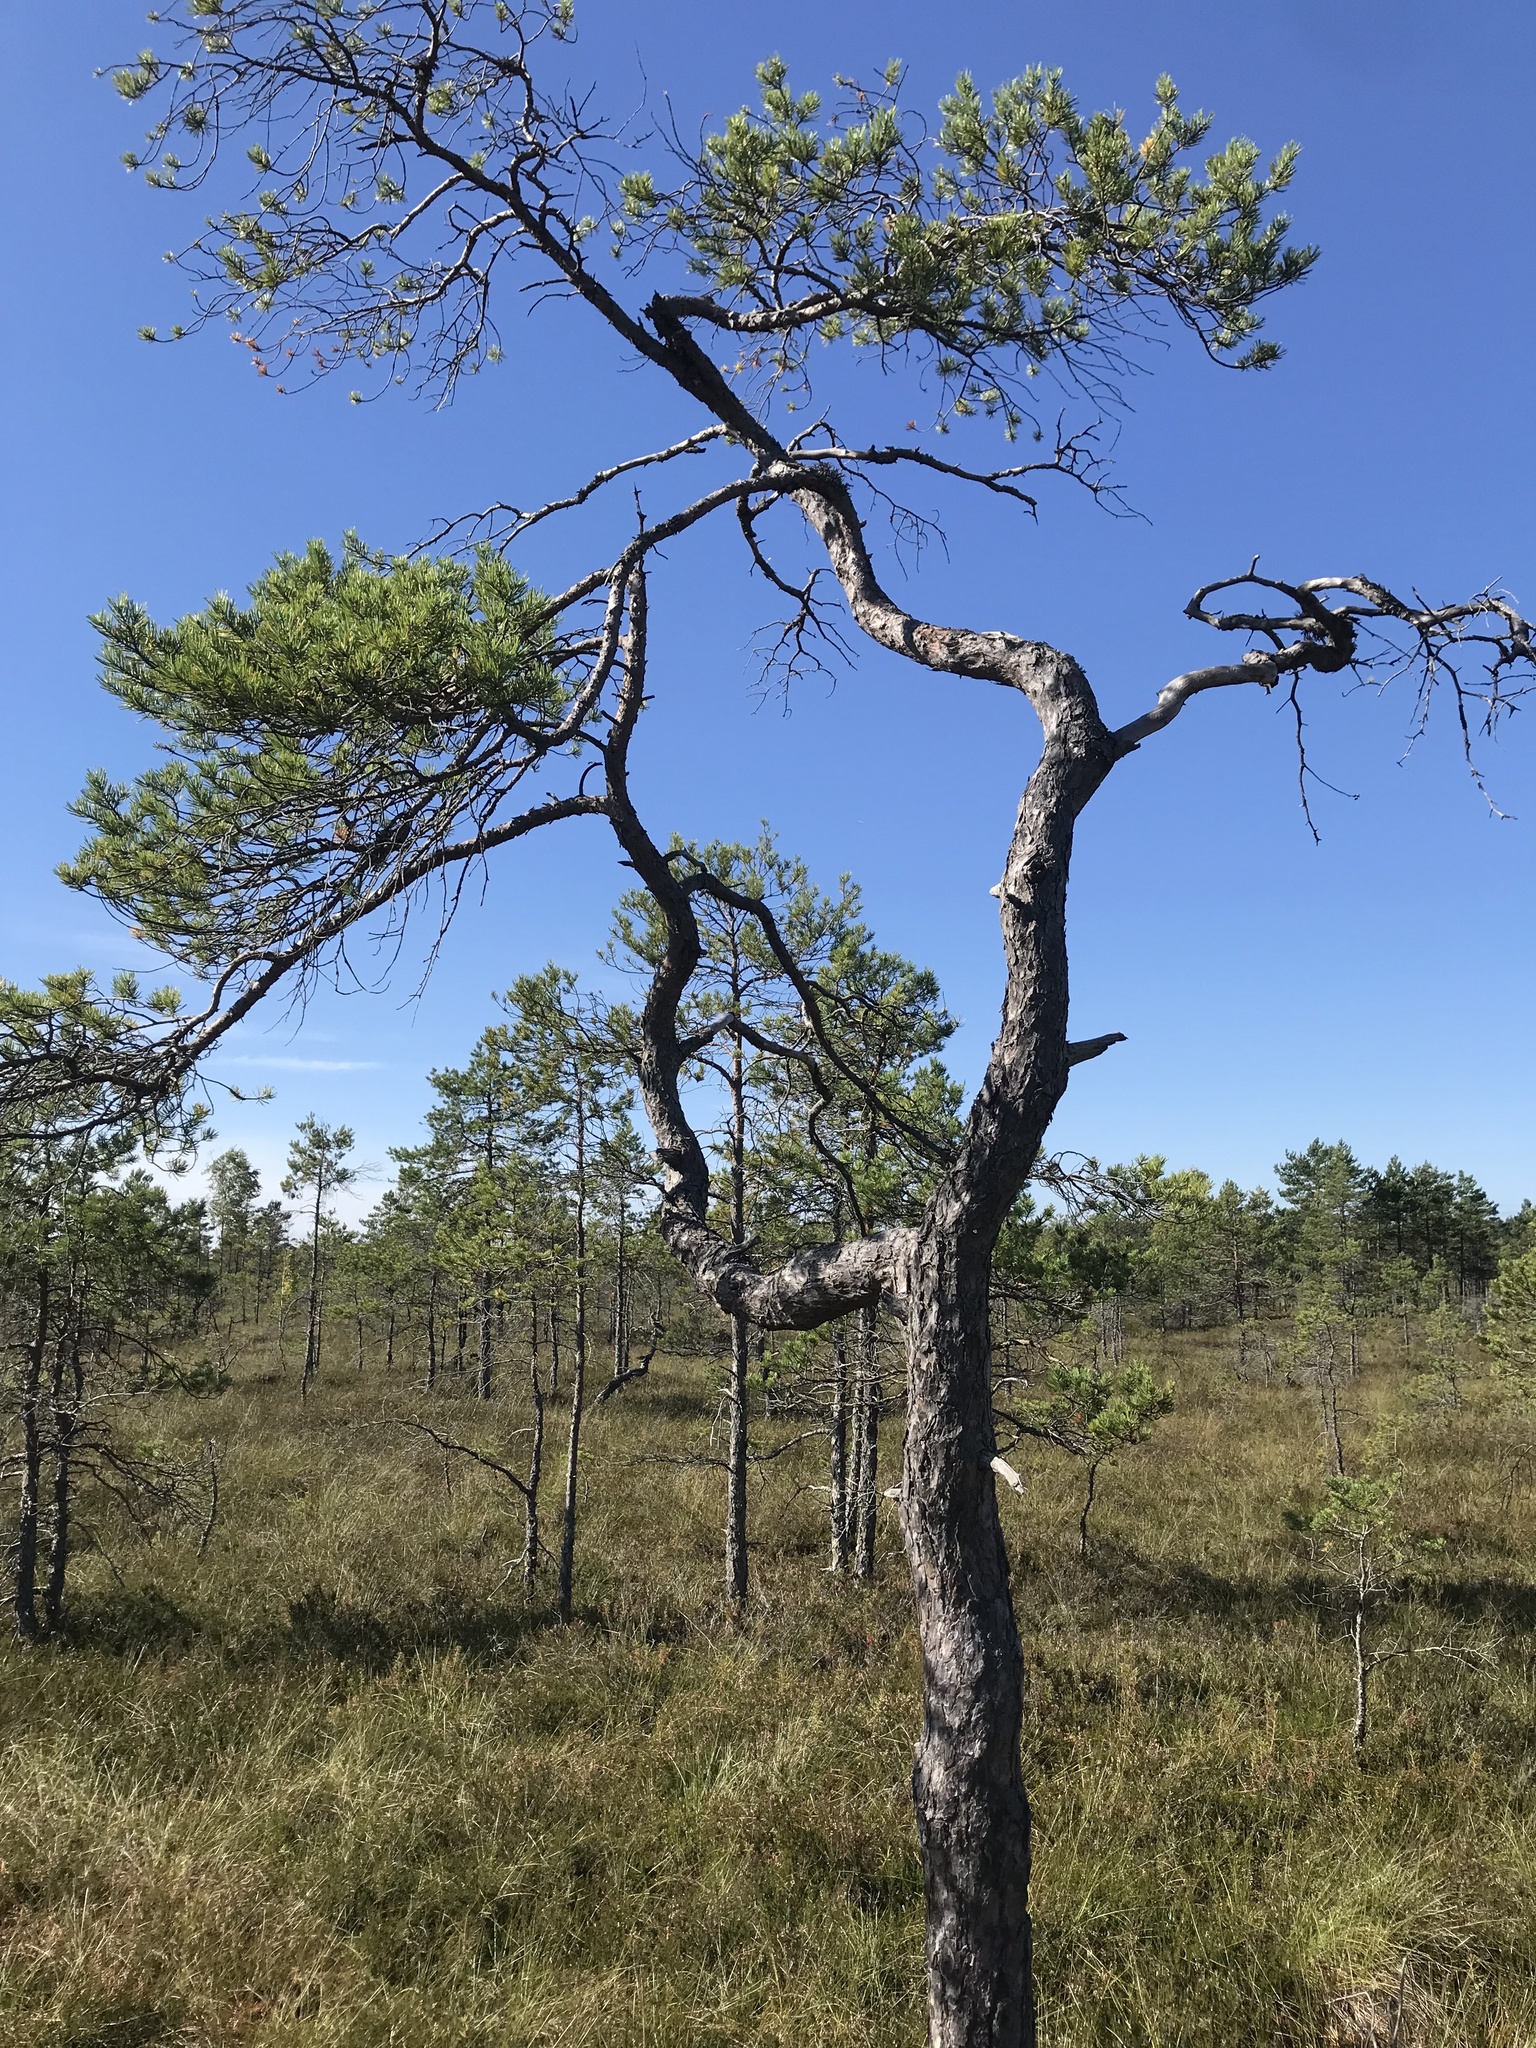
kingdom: Plantae
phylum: Tracheophyta
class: Pinopsida
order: Pinales
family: Pinaceae
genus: Pinus
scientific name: Pinus sylvestris
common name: Scots pine
